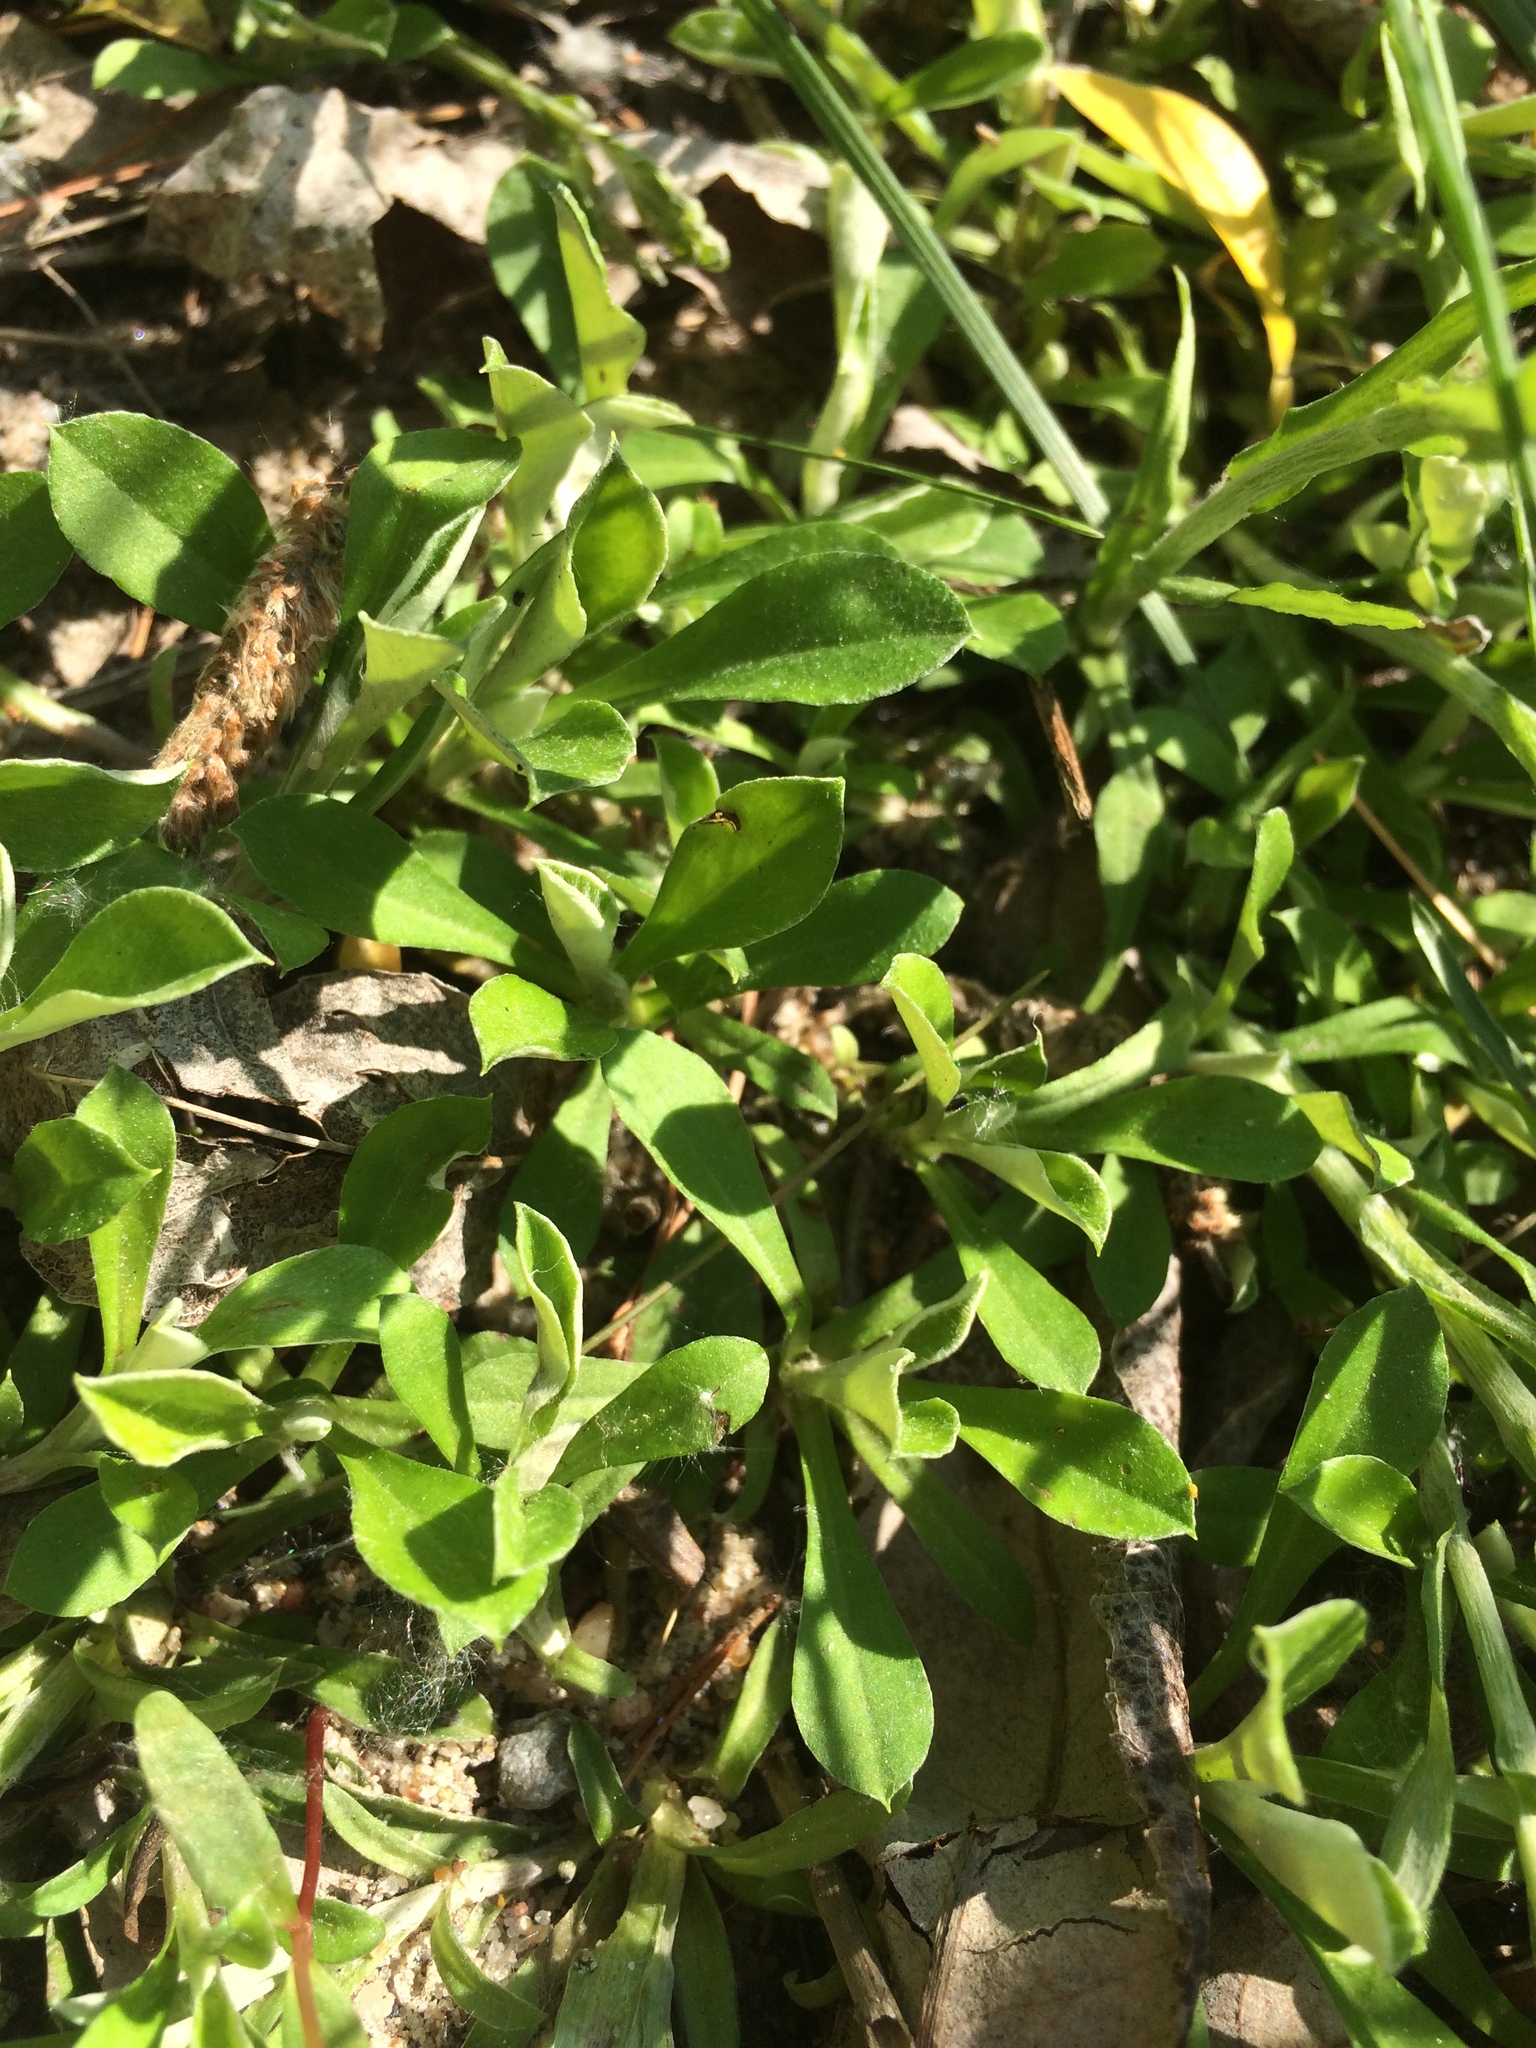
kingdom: Plantae
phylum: Tracheophyta
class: Magnoliopsida
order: Asterales
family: Asteraceae
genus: Antennaria
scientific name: Antennaria howellii
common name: Howell's pussytoes
